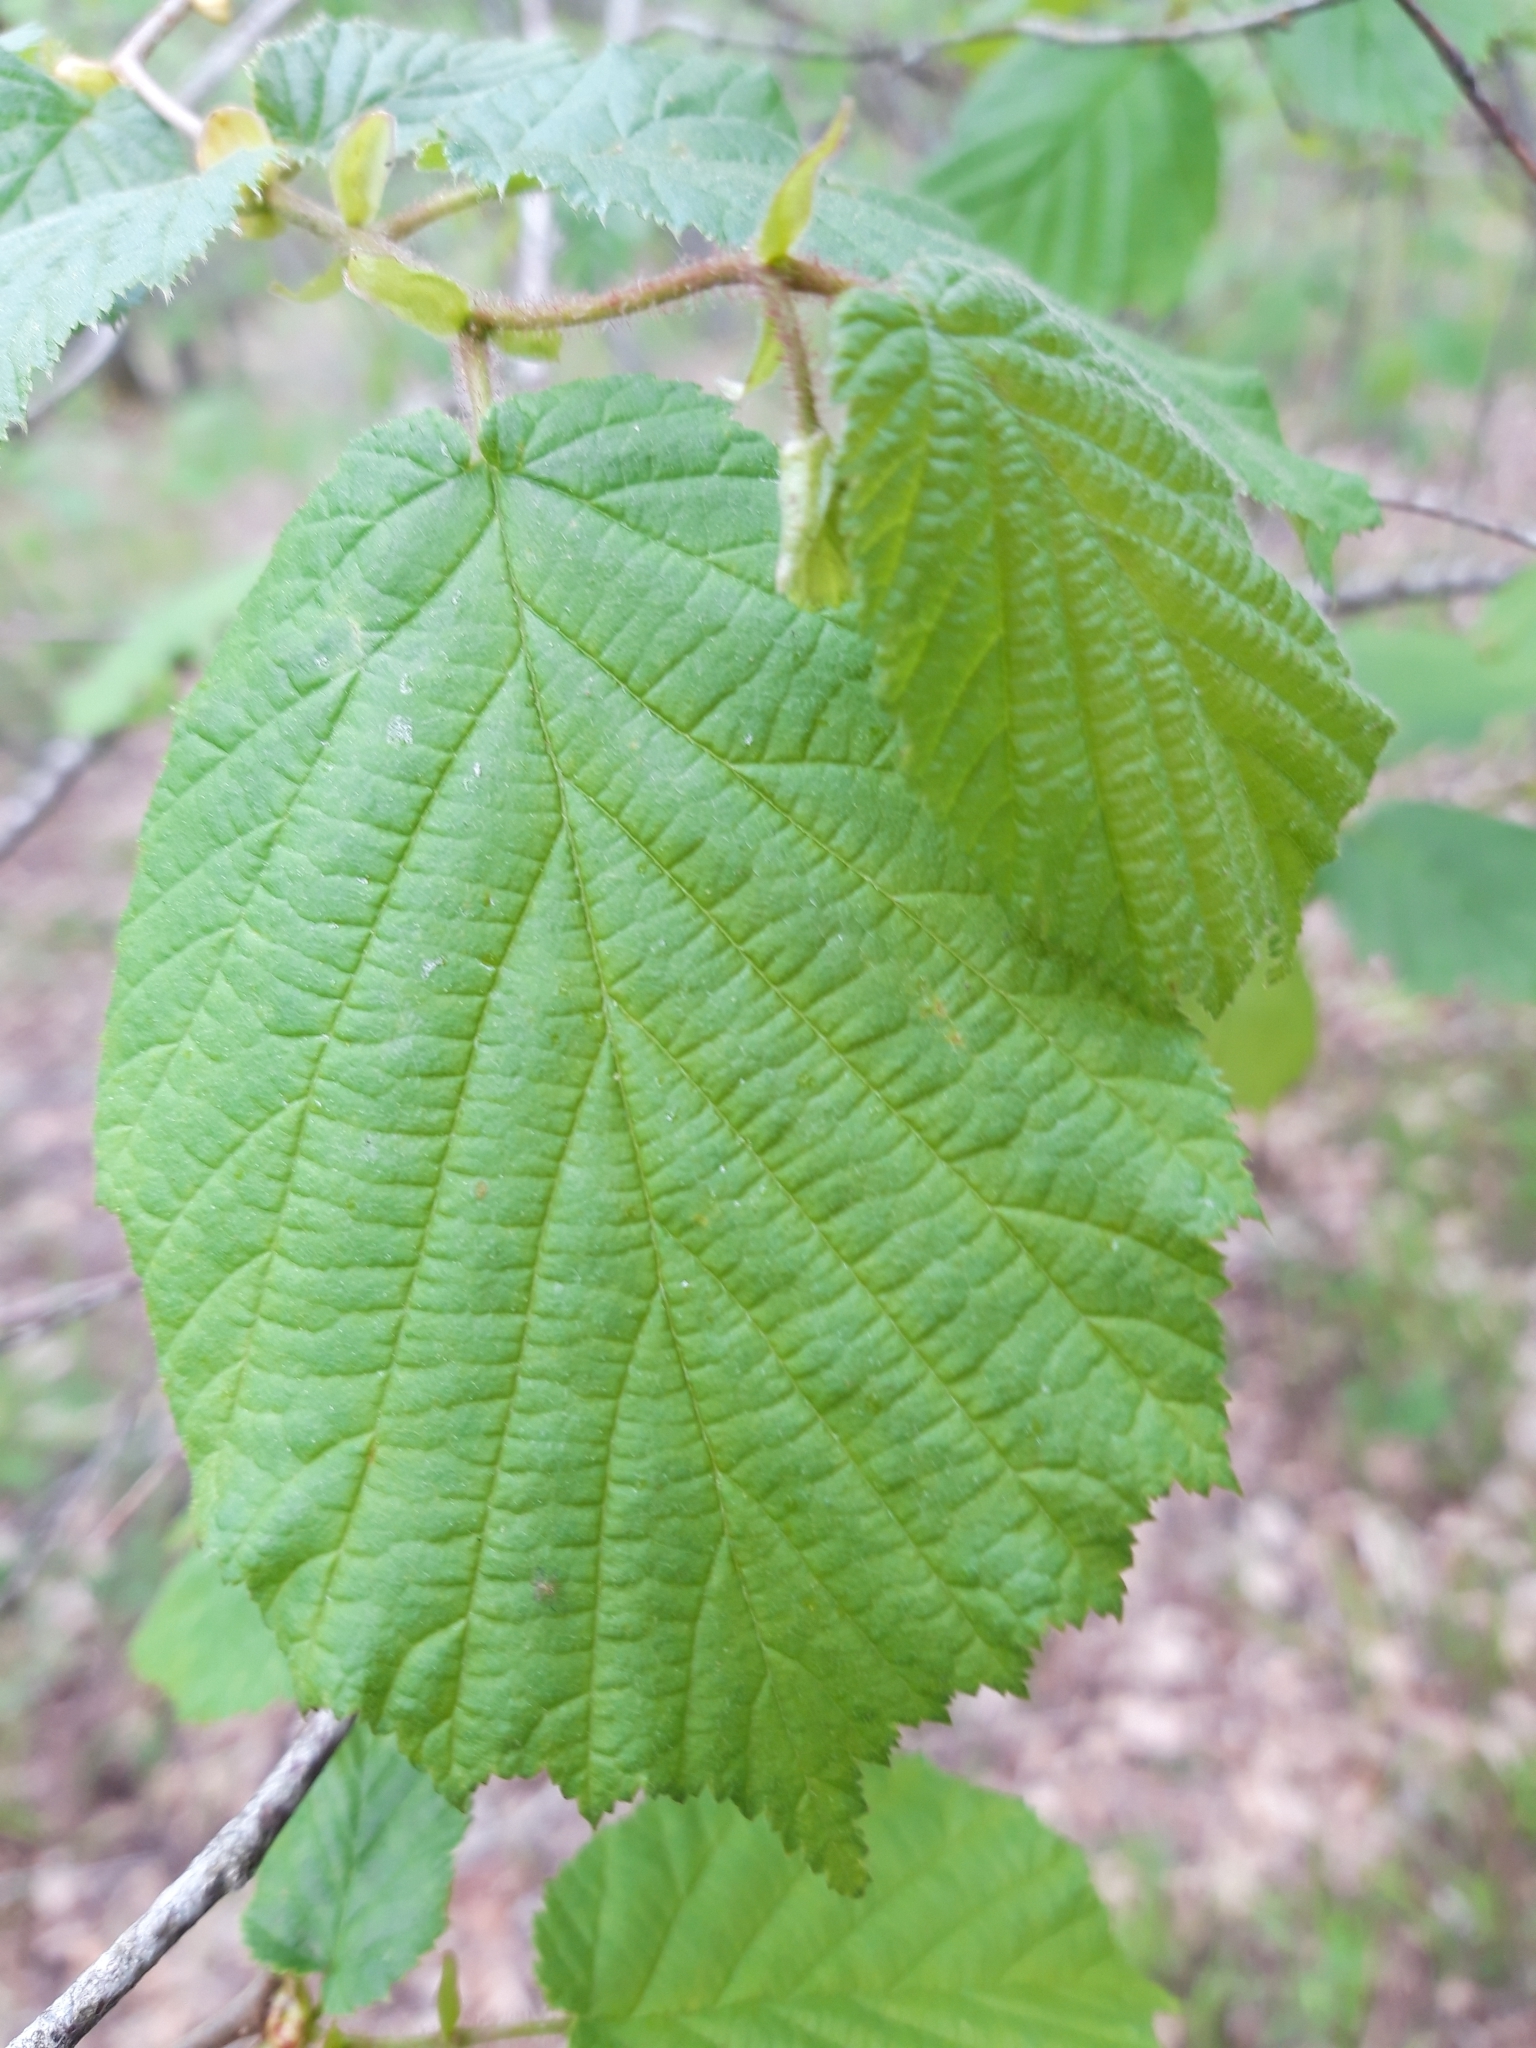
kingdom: Plantae
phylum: Tracheophyta
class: Magnoliopsida
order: Fagales
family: Betulaceae
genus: Corylus
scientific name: Corylus avellana
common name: European hazel
